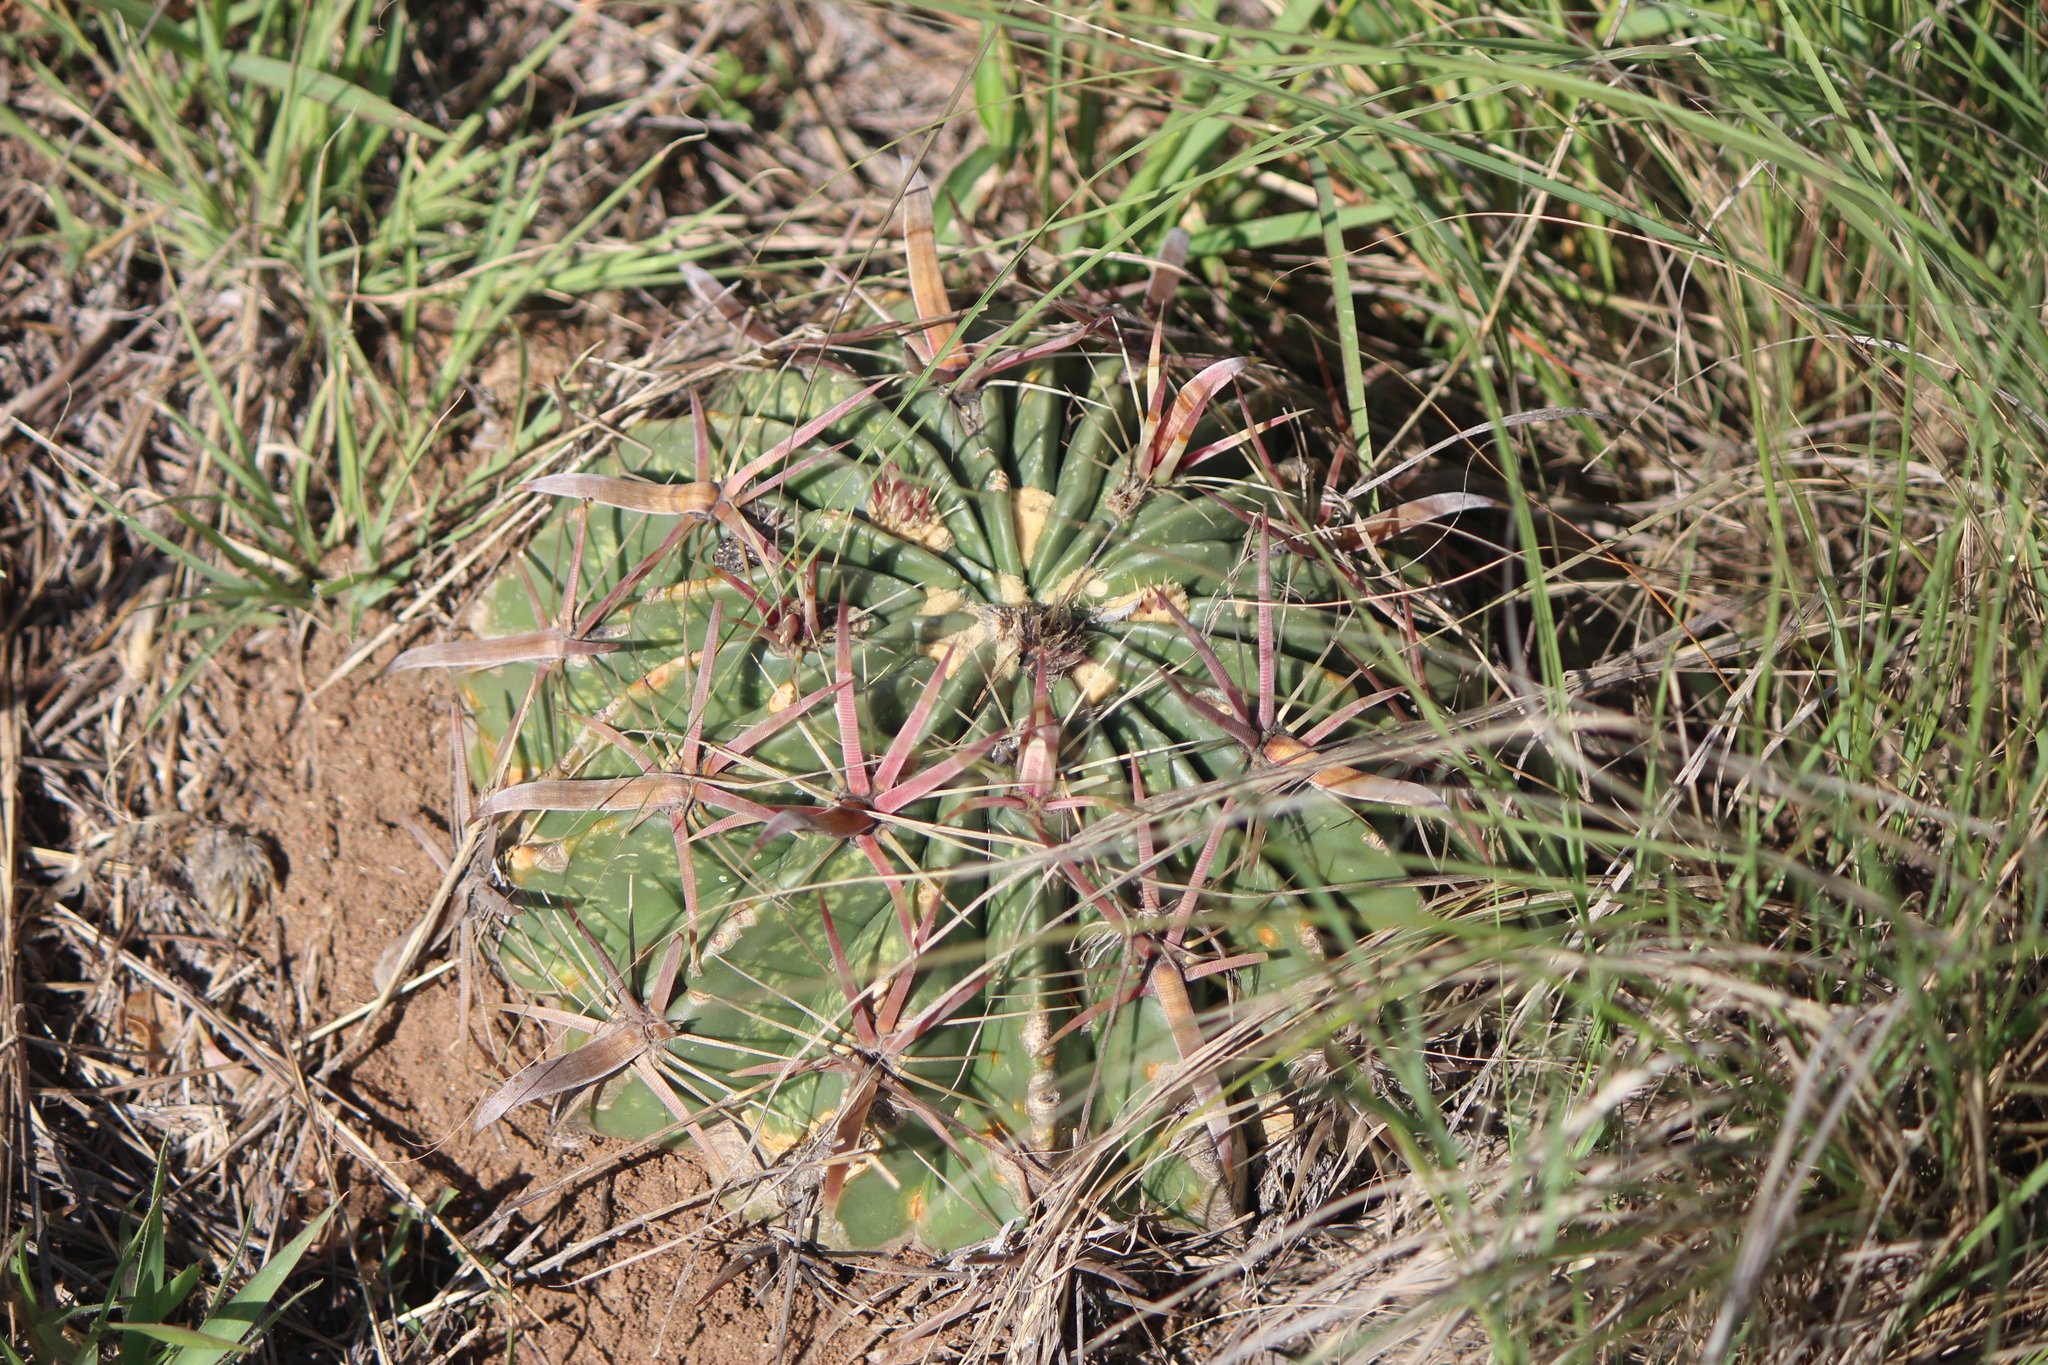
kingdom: Plantae
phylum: Tracheophyta
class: Magnoliopsida
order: Caryophyllales
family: Cactaceae
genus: Ferocactus
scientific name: Ferocactus latispinus
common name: Devil's-tongue cactus
